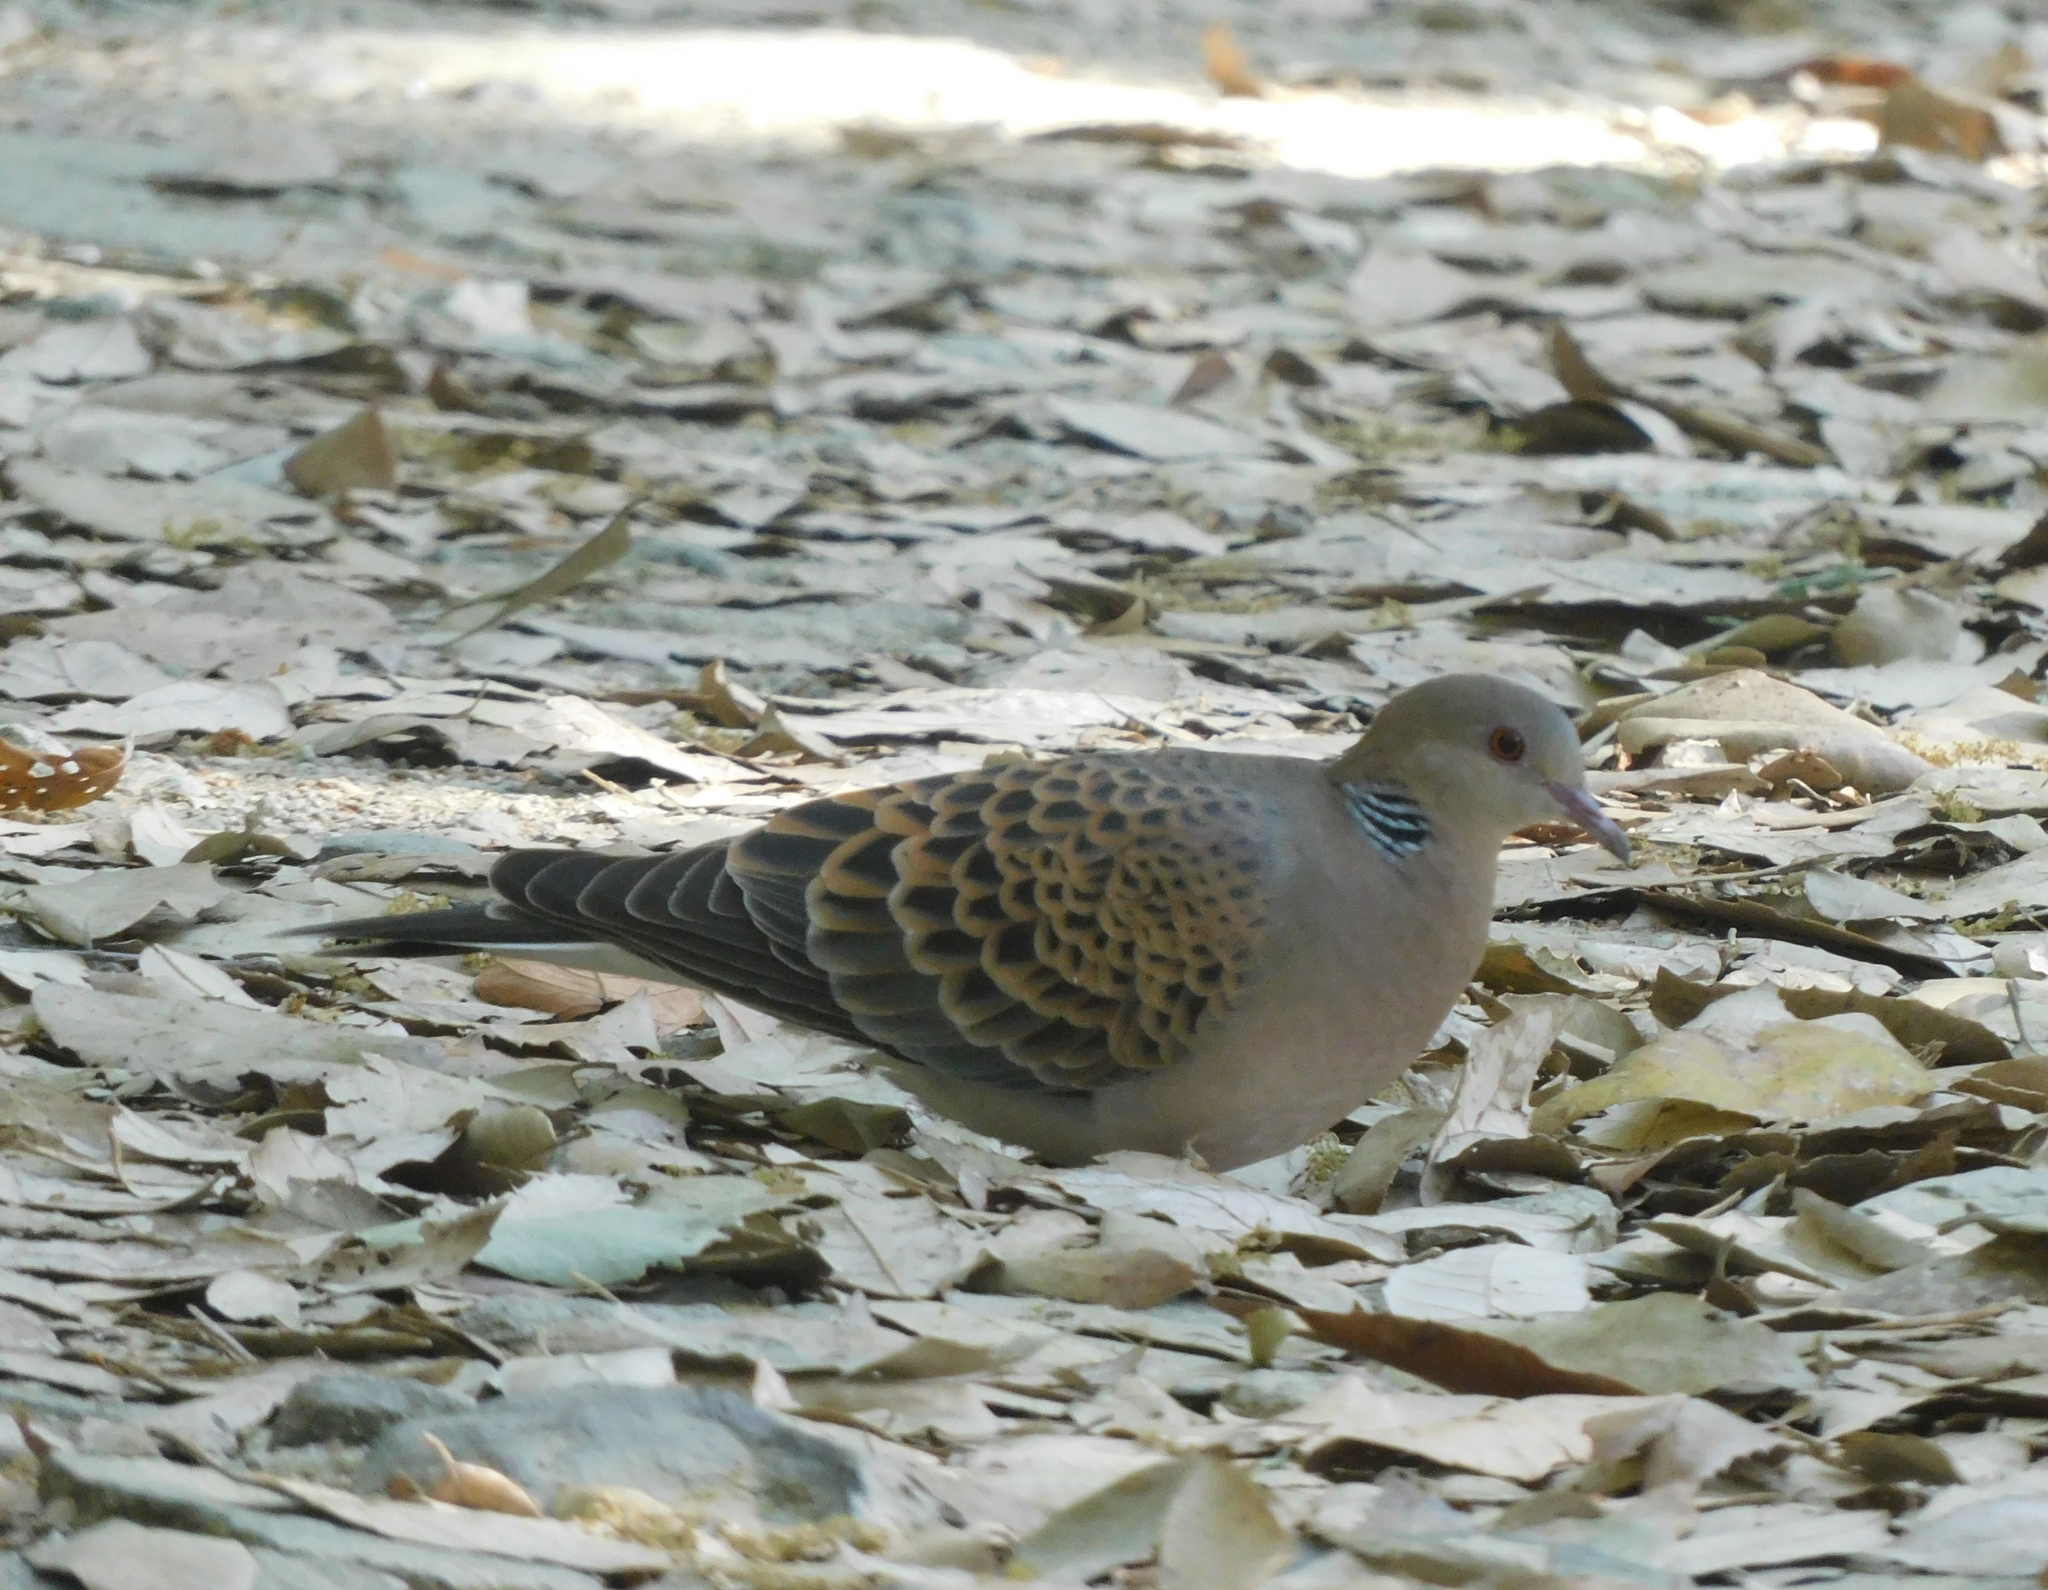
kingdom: Animalia
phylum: Chordata
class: Aves
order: Columbiformes
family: Columbidae
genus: Streptopelia
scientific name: Streptopelia orientalis
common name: Oriental turtle dove
